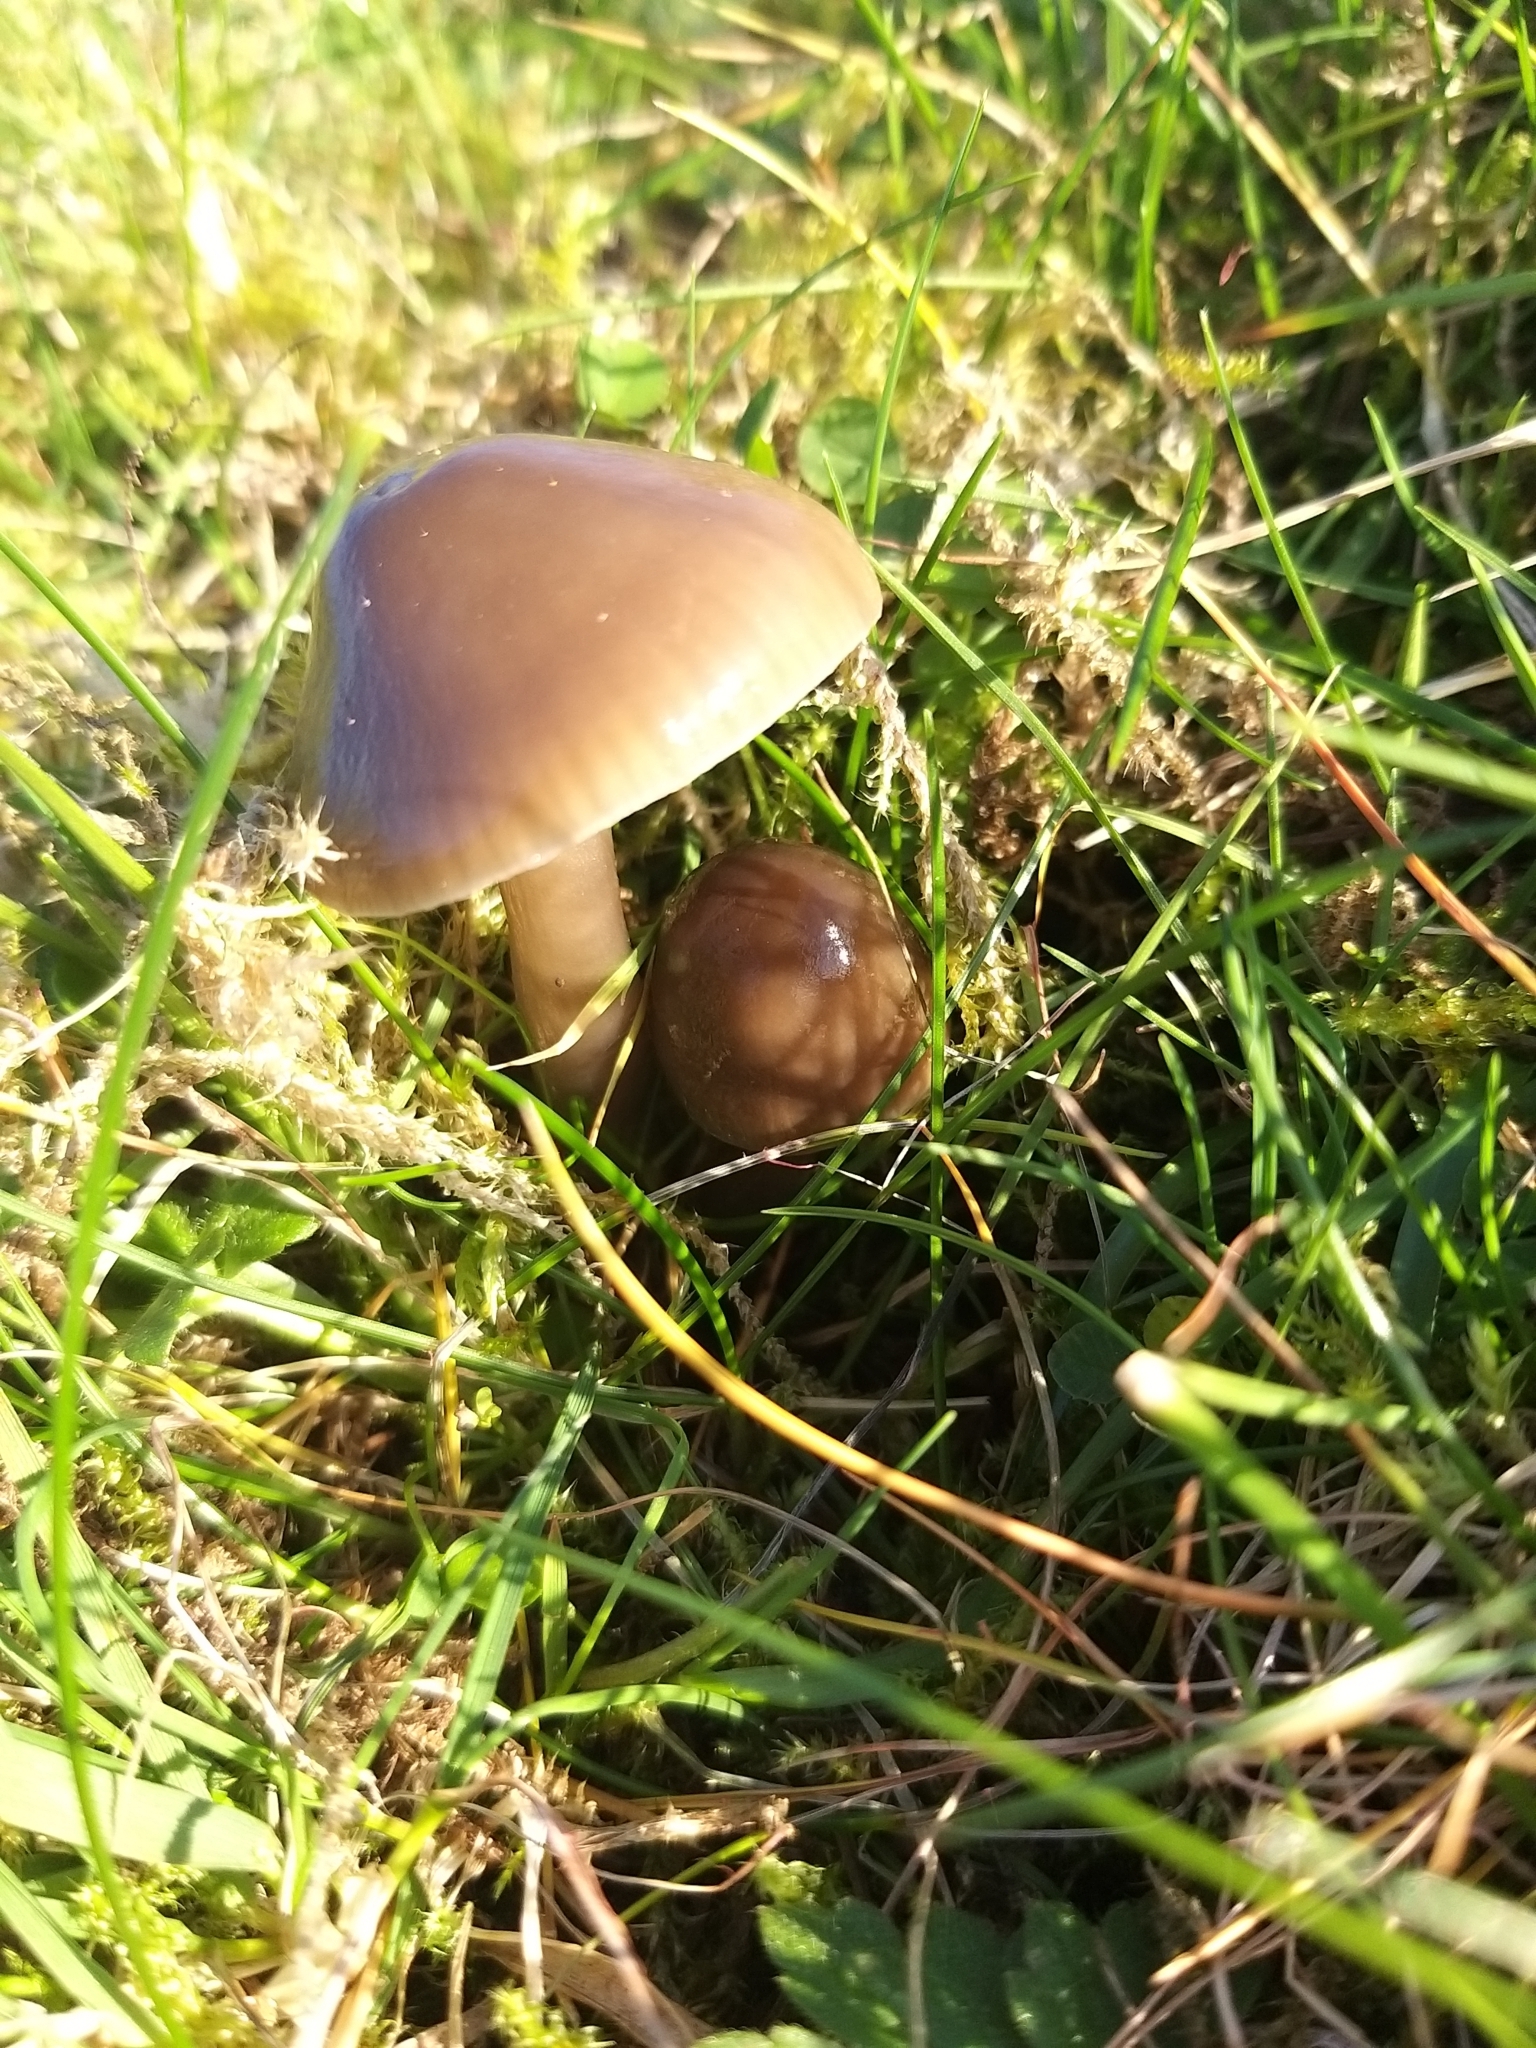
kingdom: Fungi
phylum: Basidiomycota
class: Agaricomycetes
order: Agaricales
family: Hygrophoraceae
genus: Gliophorus
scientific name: Gliophorus irrigatus
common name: Slimy waxcap
